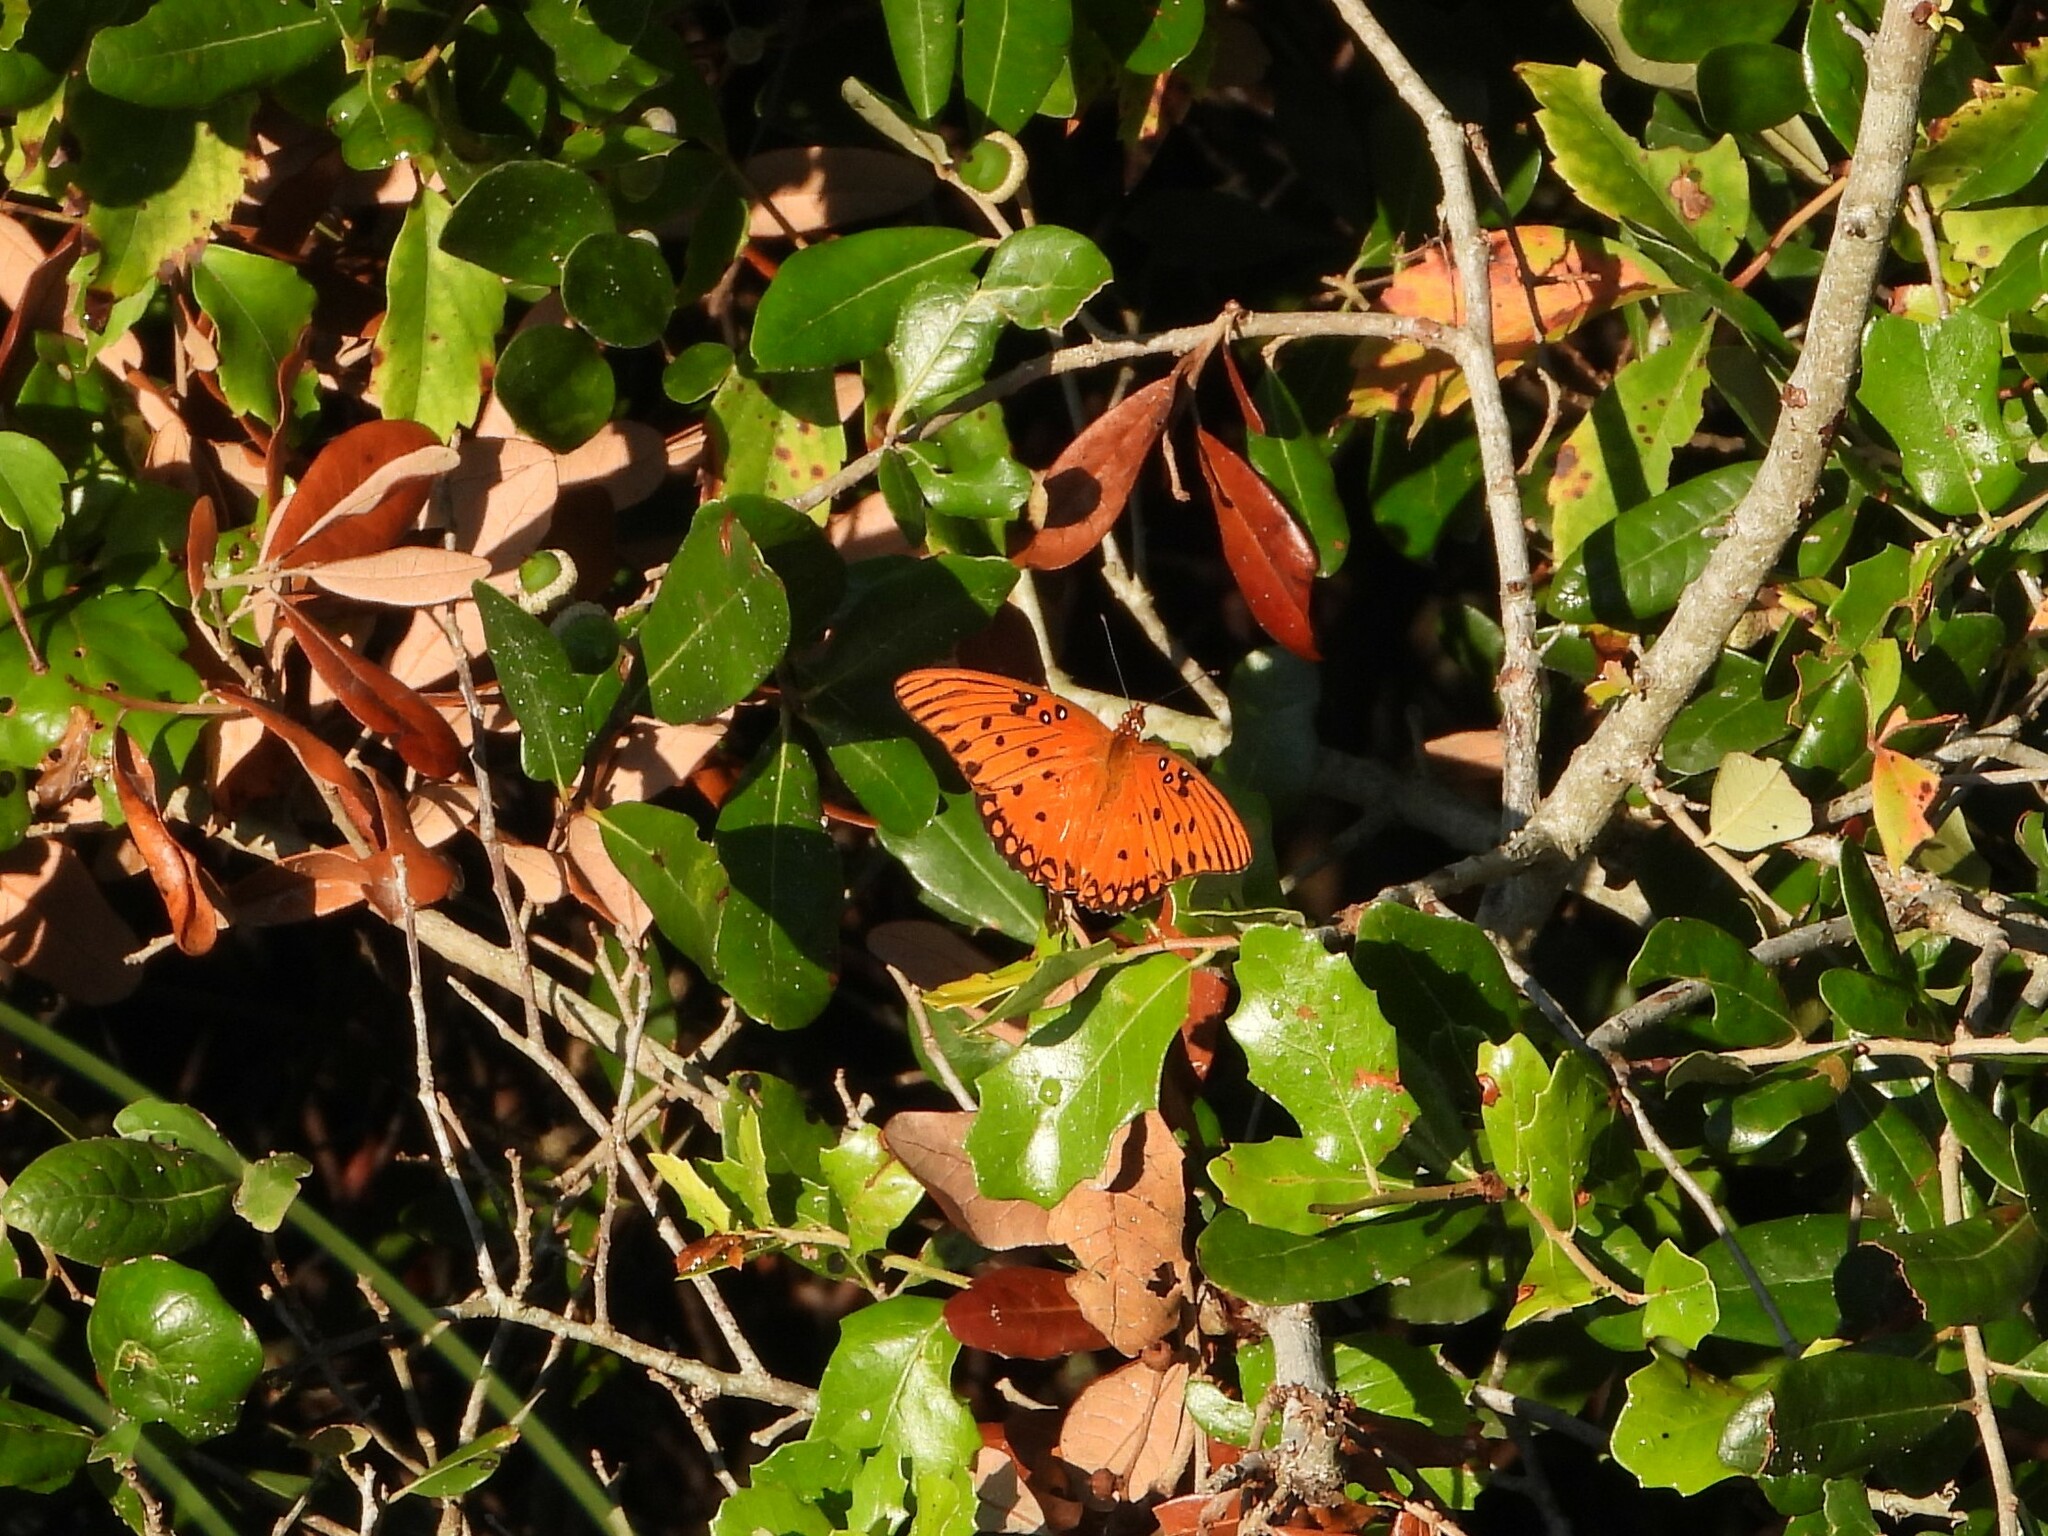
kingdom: Animalia
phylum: Arthropoda
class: Insecta
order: Lepidoptera
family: Nymphalidae
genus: Dione
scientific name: Dione vanillae
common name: Gulf fritillary
